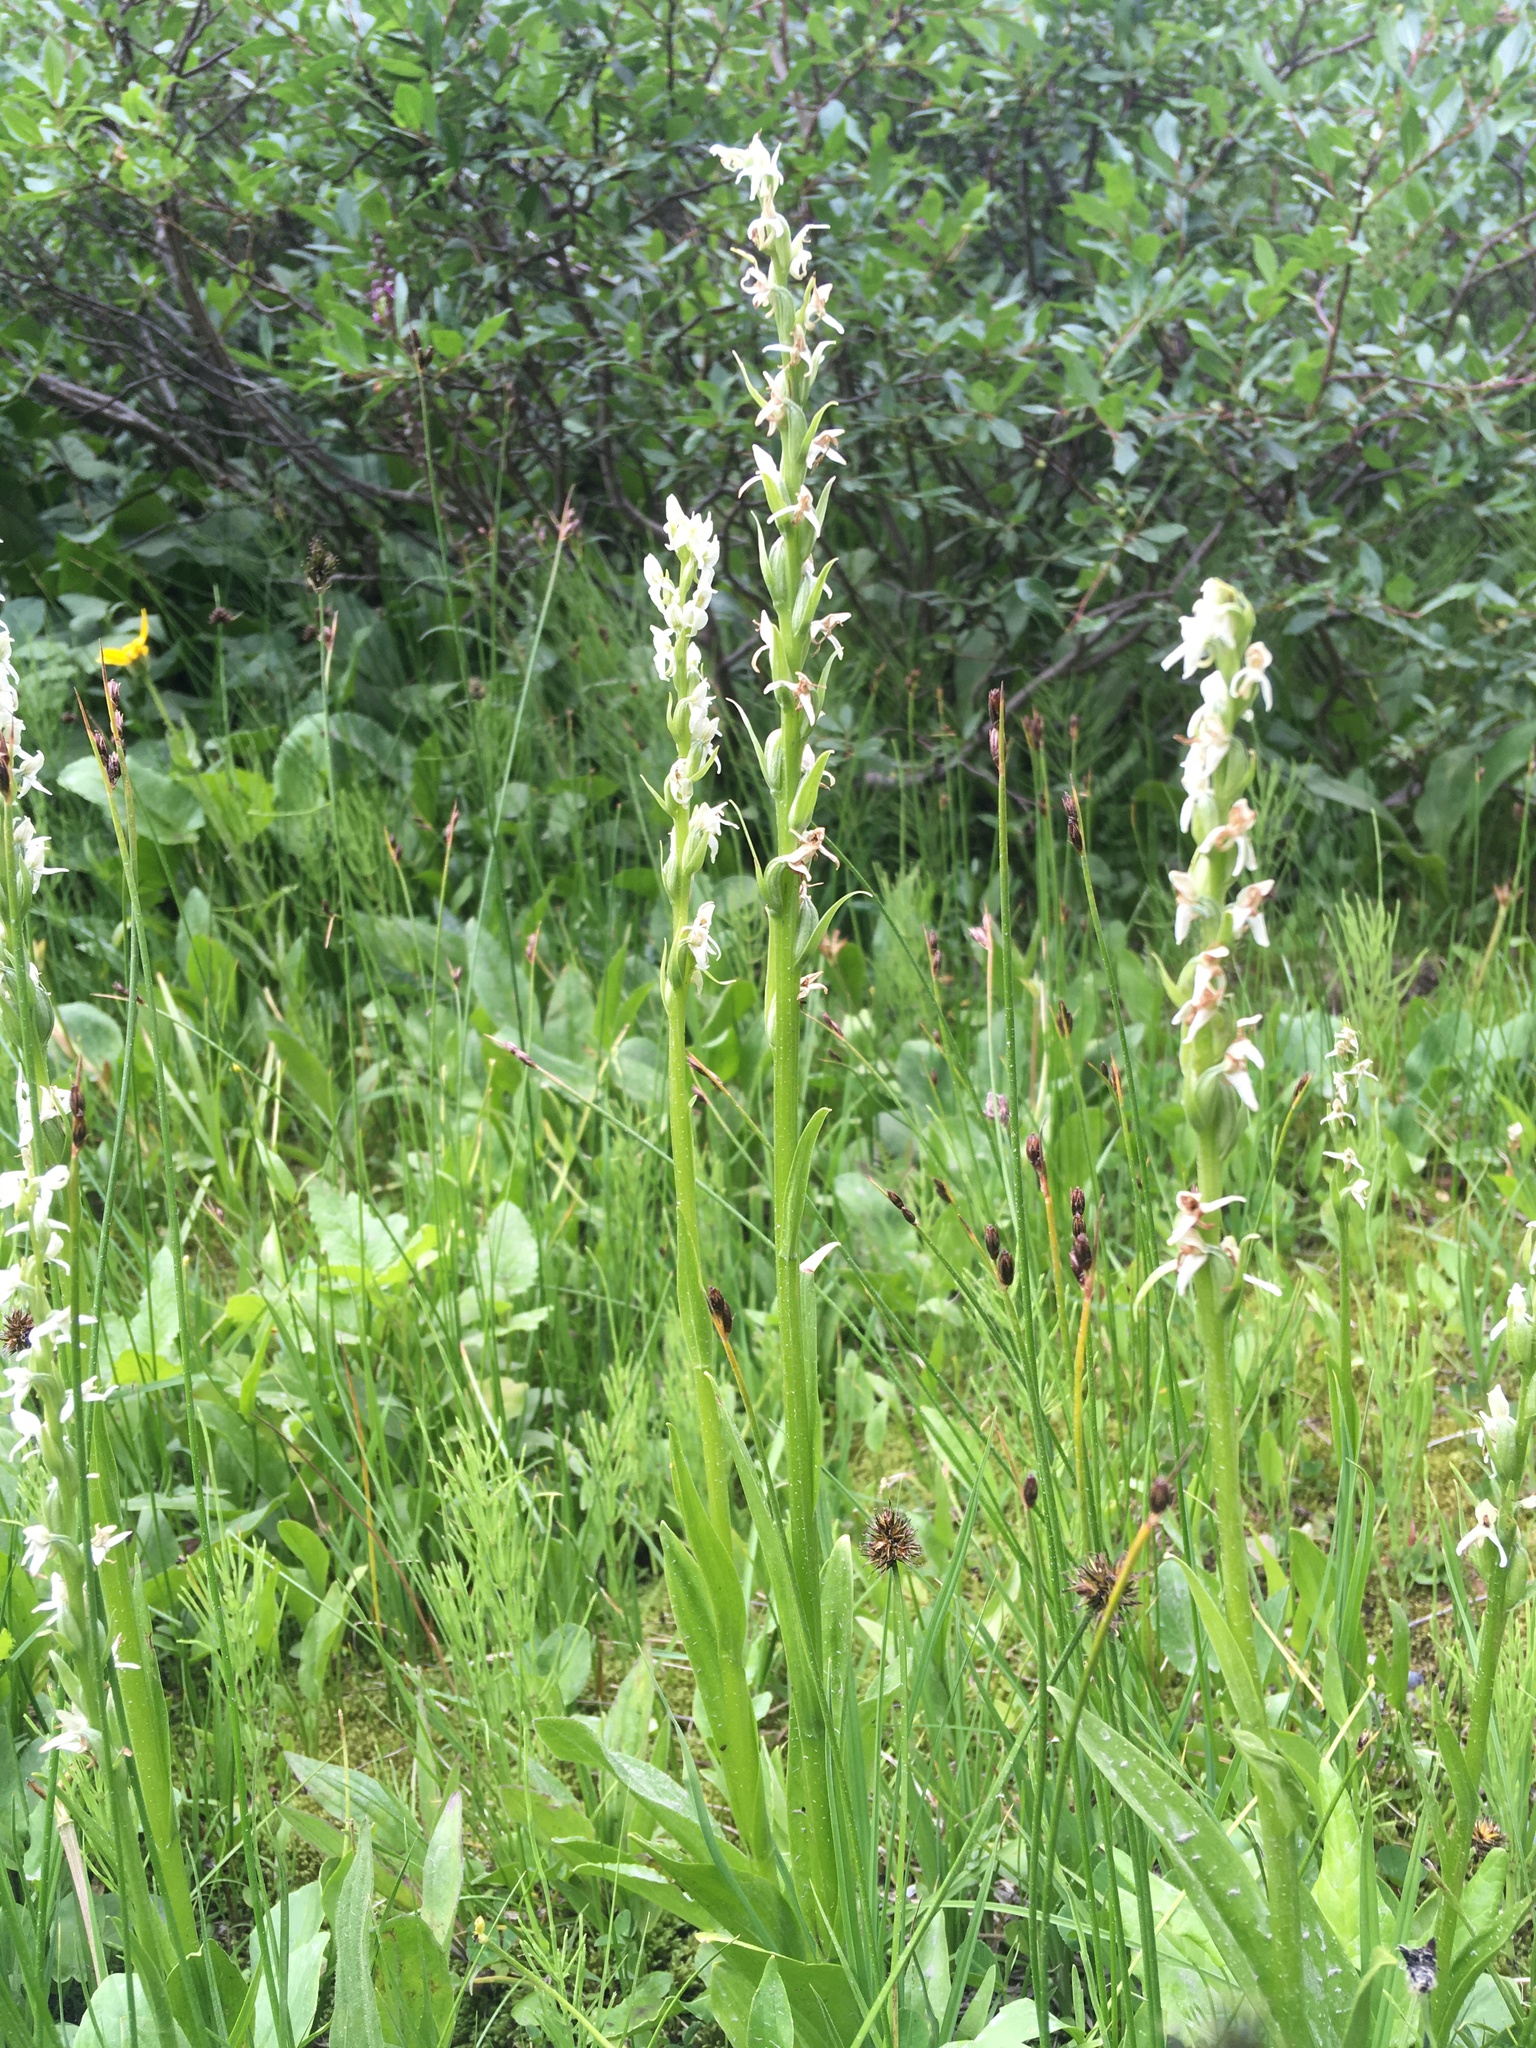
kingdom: Plantae
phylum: Tracheophyta
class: Liliopsida
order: Asparagales
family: Orchidaceae
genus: Platanthera
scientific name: Platanthera dilatata
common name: Bog candles
